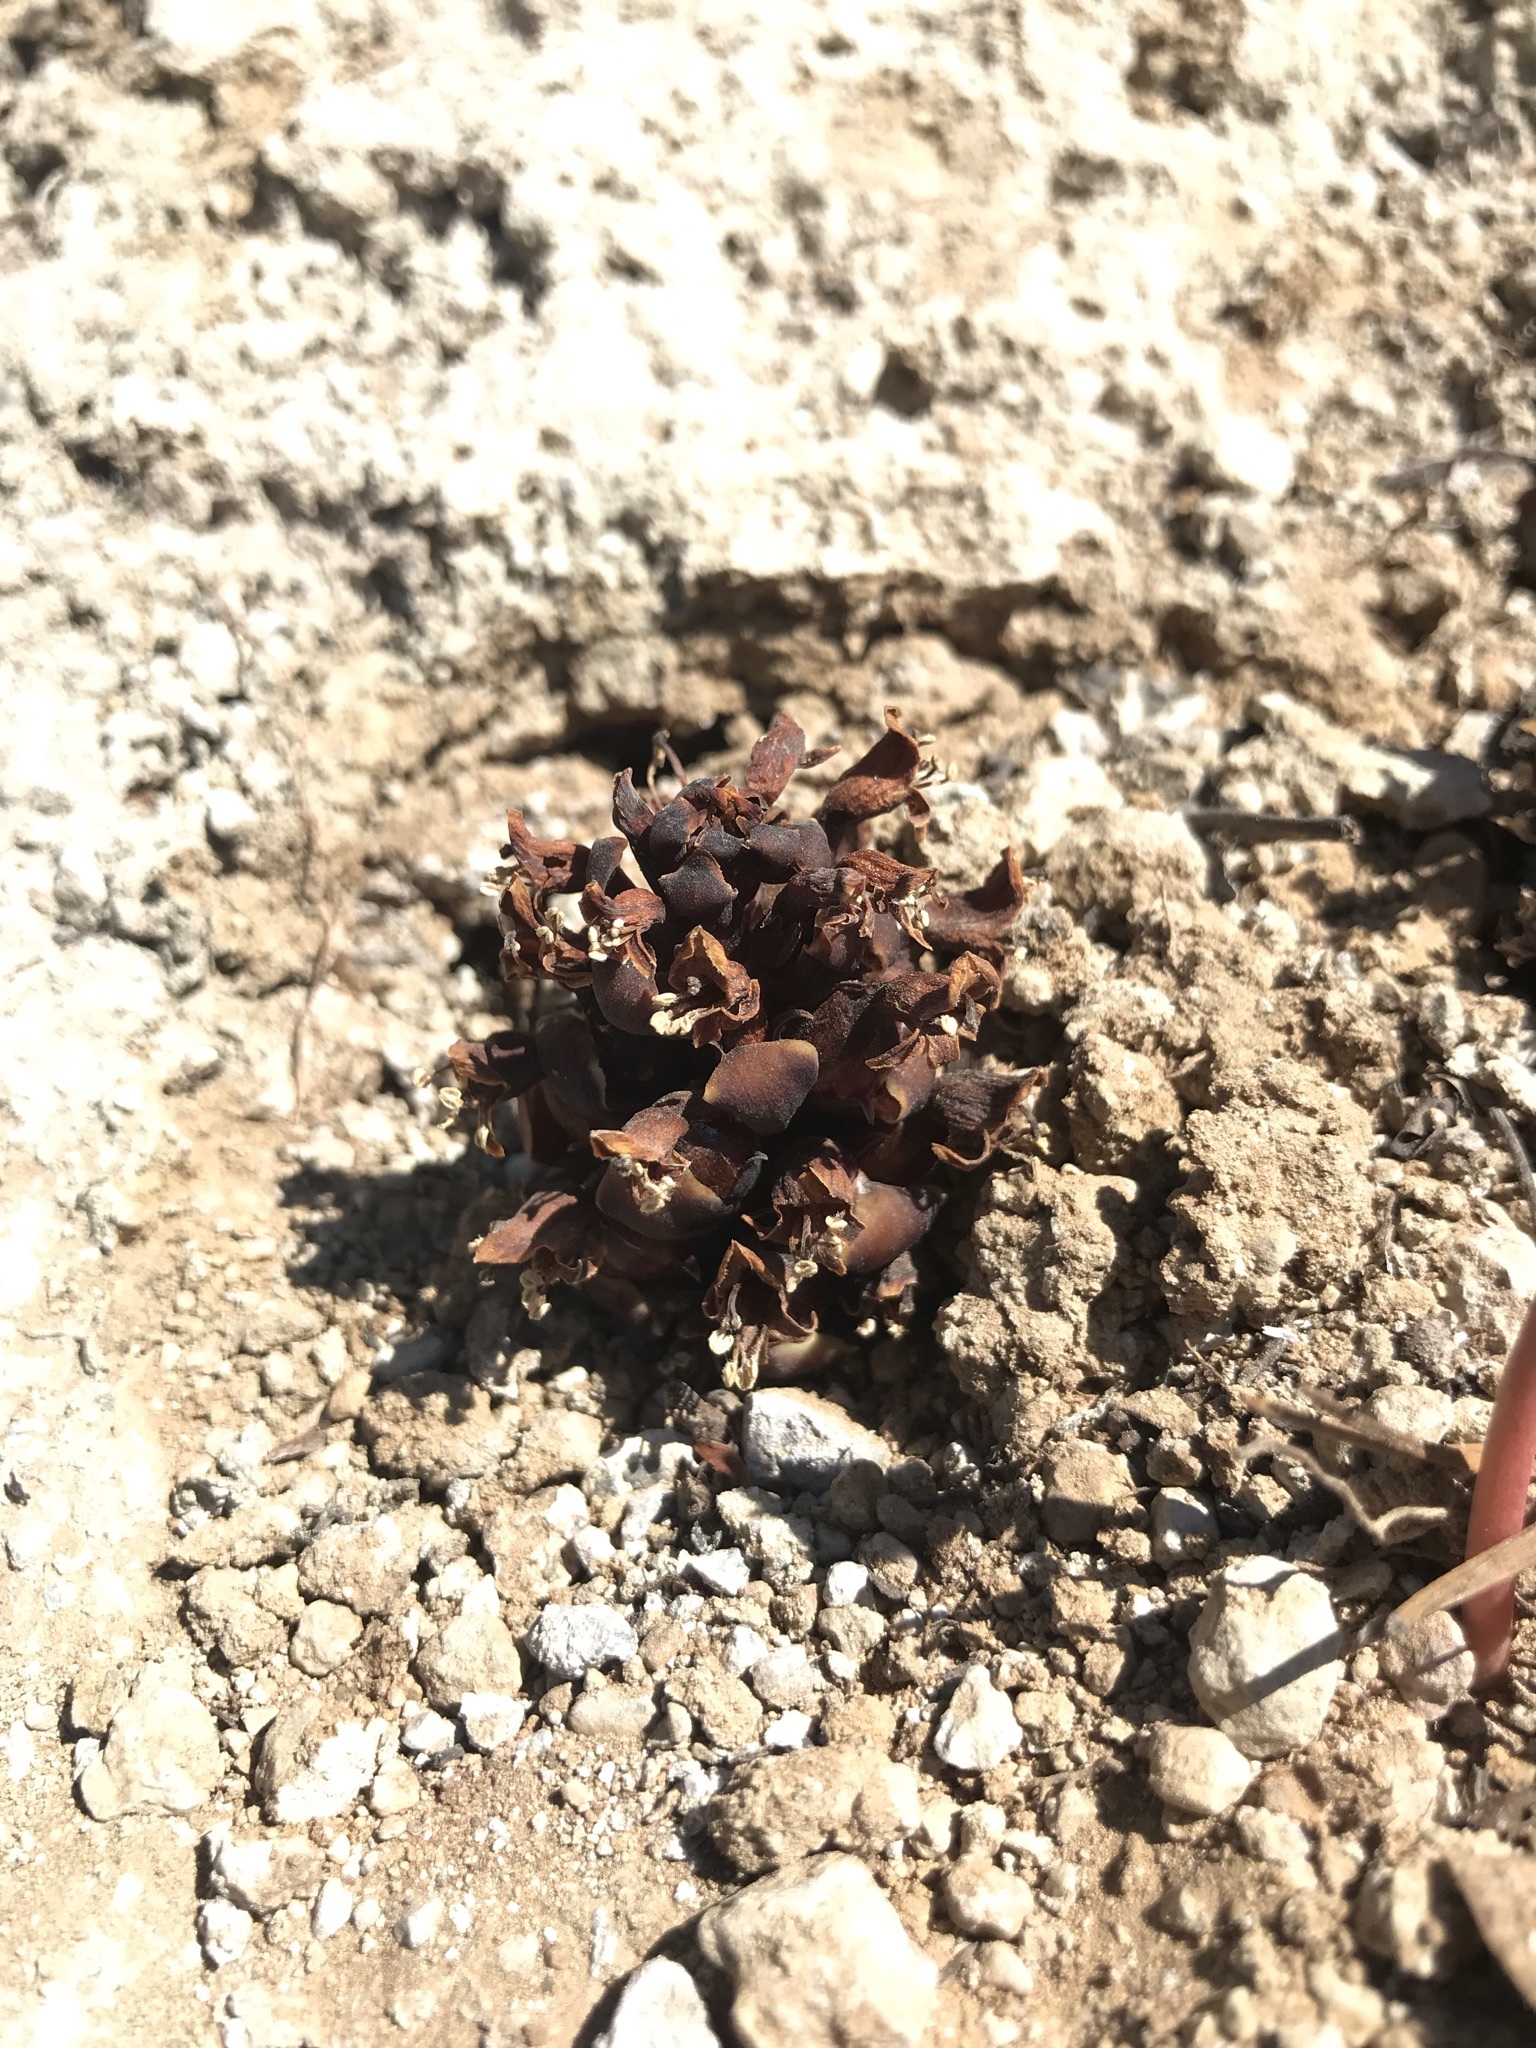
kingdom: Plantae
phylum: Tracheophyta
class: Magnoliopsida
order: Lamiales
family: Orobanchaceae
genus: Kopsiopsis
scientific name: Kopsiopsis strobilacea
